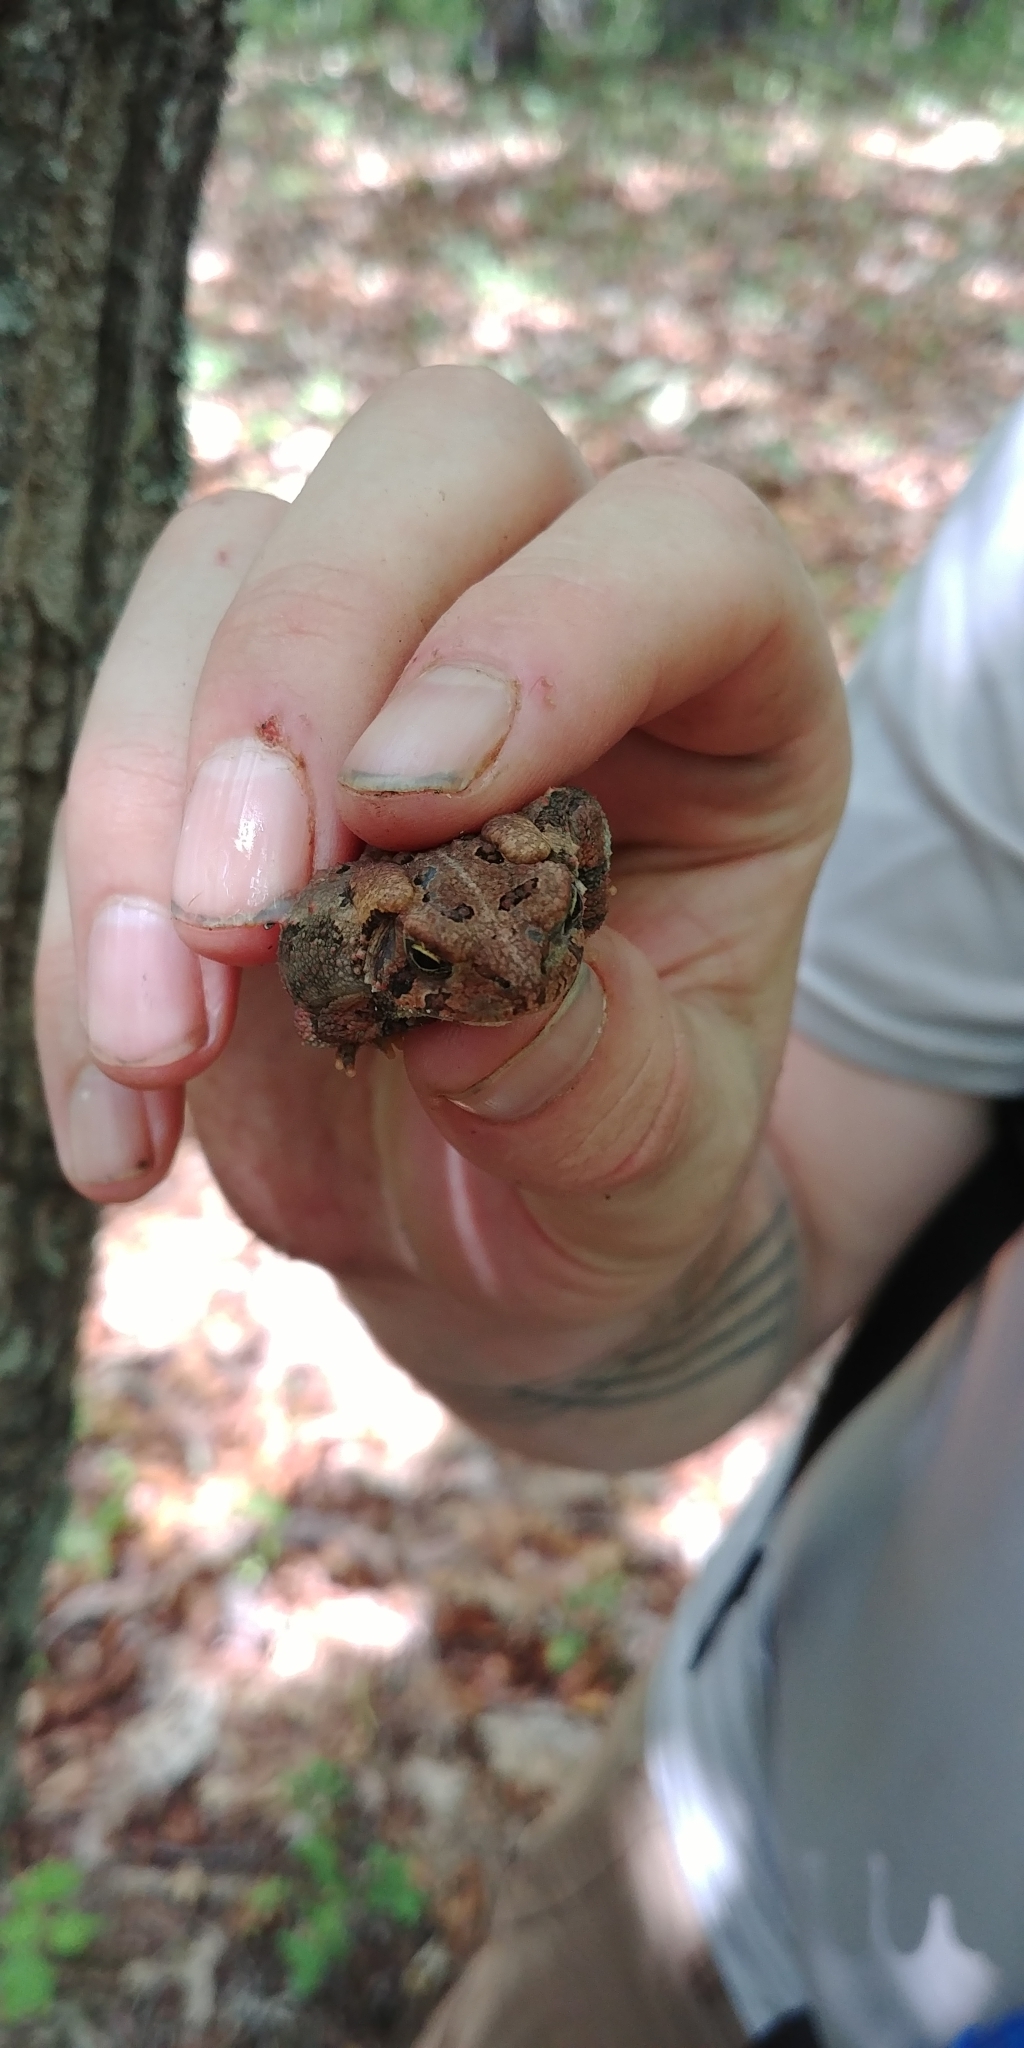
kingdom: Animalia
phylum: Chordata
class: Amphibia
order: Anura
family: Bufonidae
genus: Anaxyrus
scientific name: Anaxyrus americanus
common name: American toad
